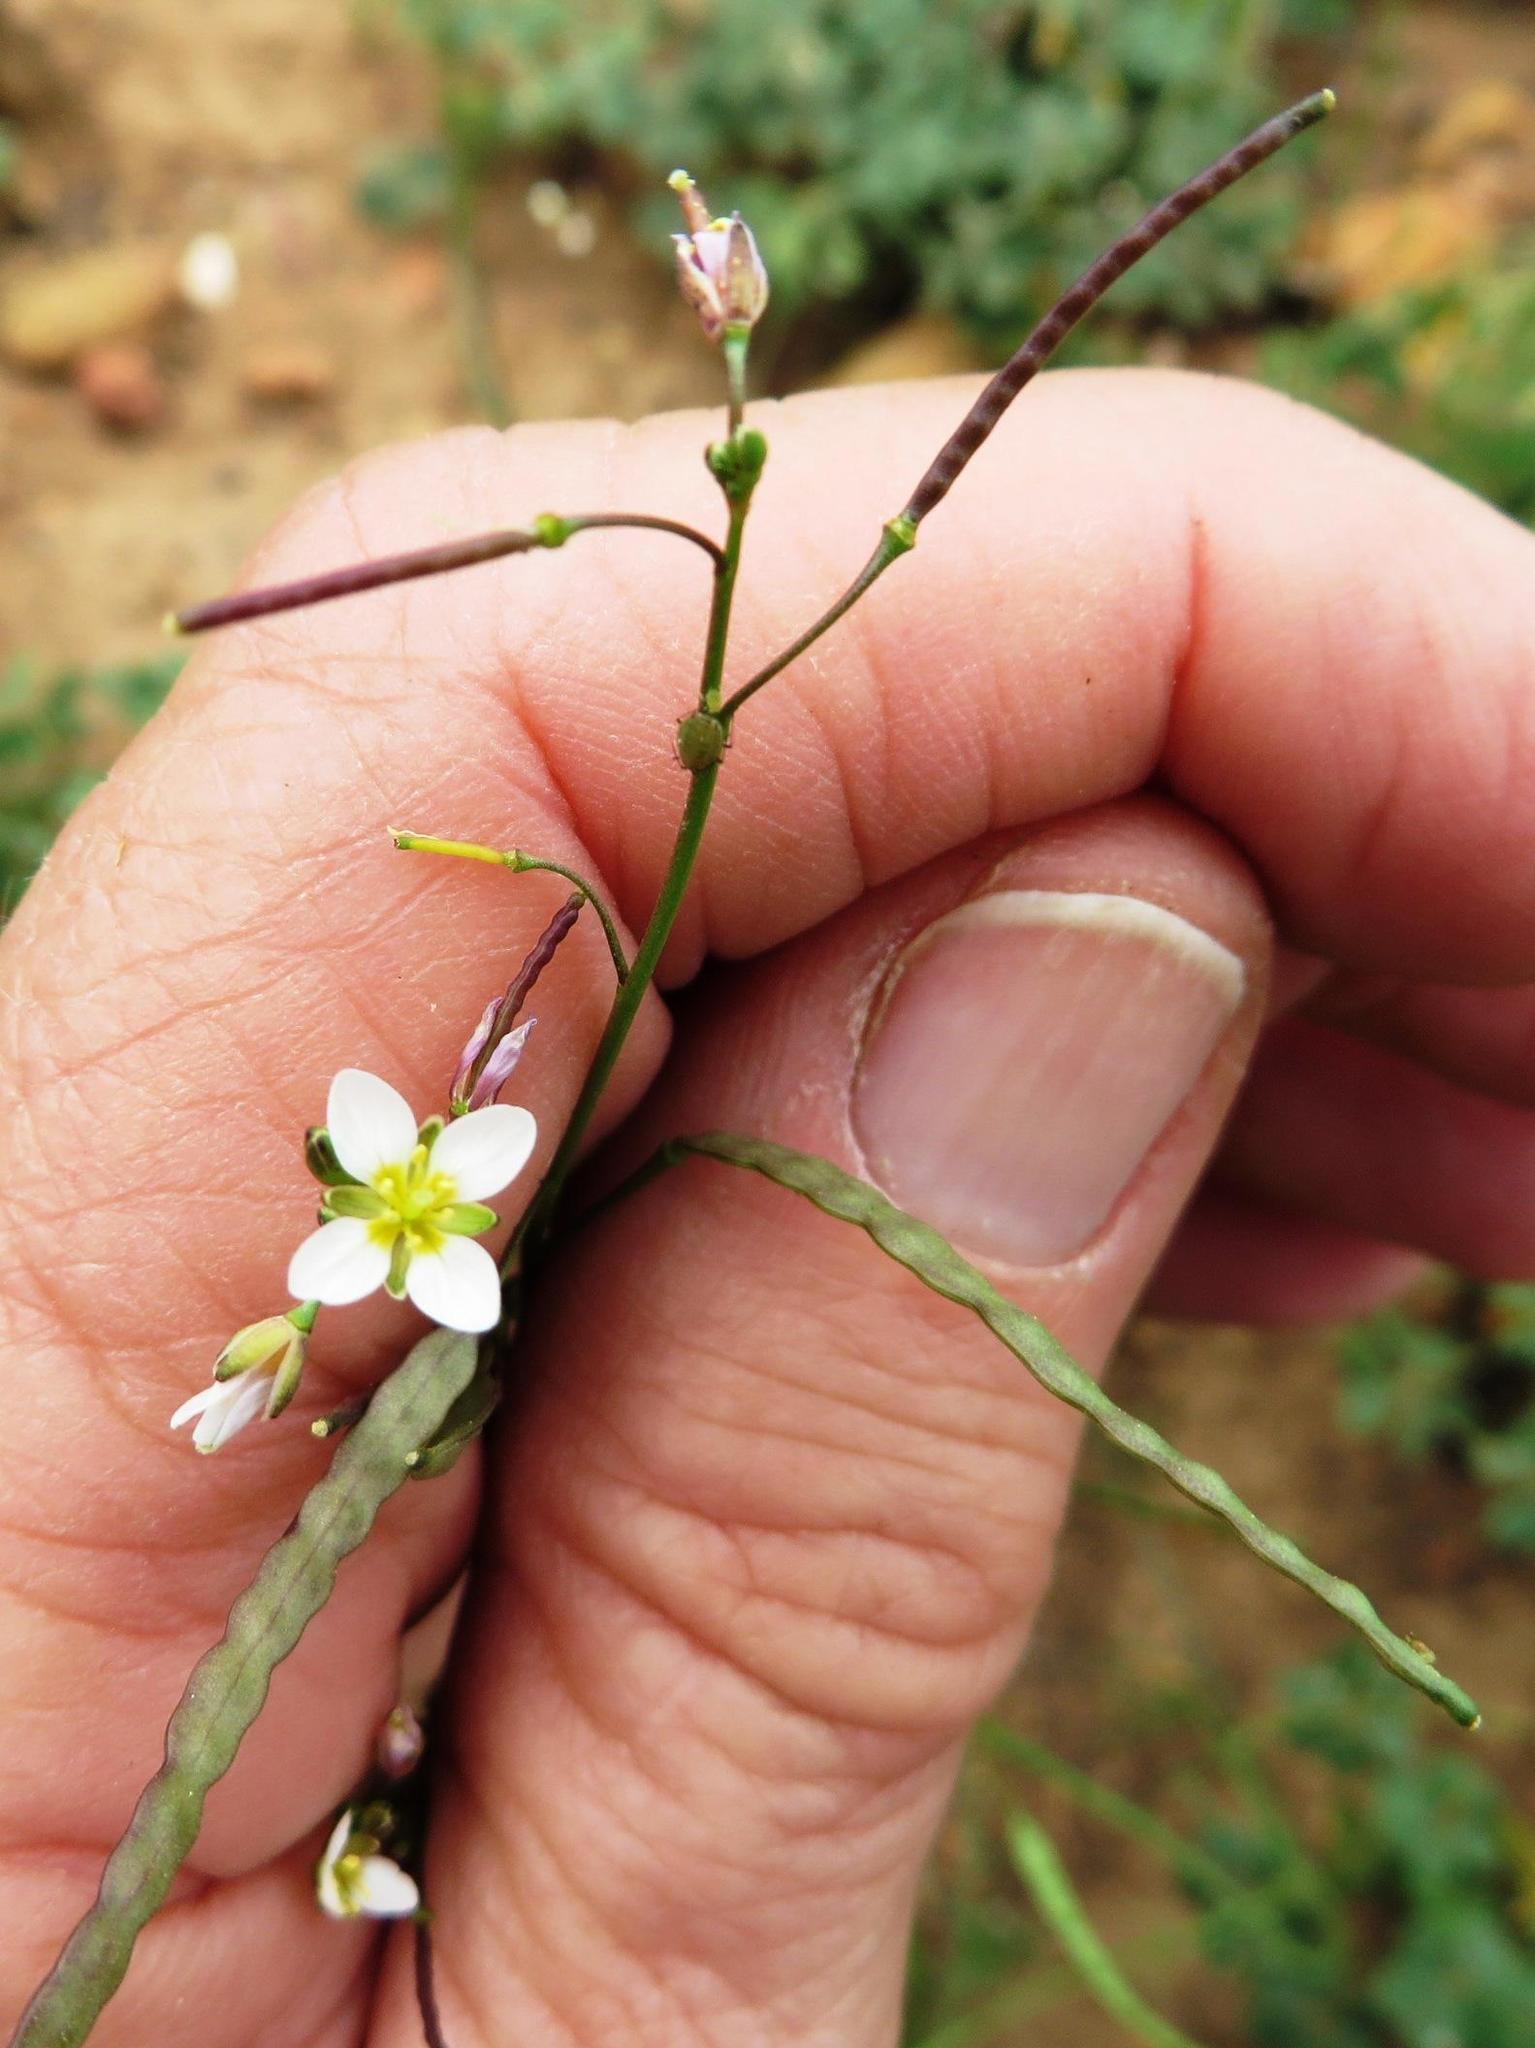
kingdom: Plantae
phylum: Tracheophyta
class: Magnoliopsida
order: Brassicales
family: Brassicaceae
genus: Heliophila
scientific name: Heliophila pendula
